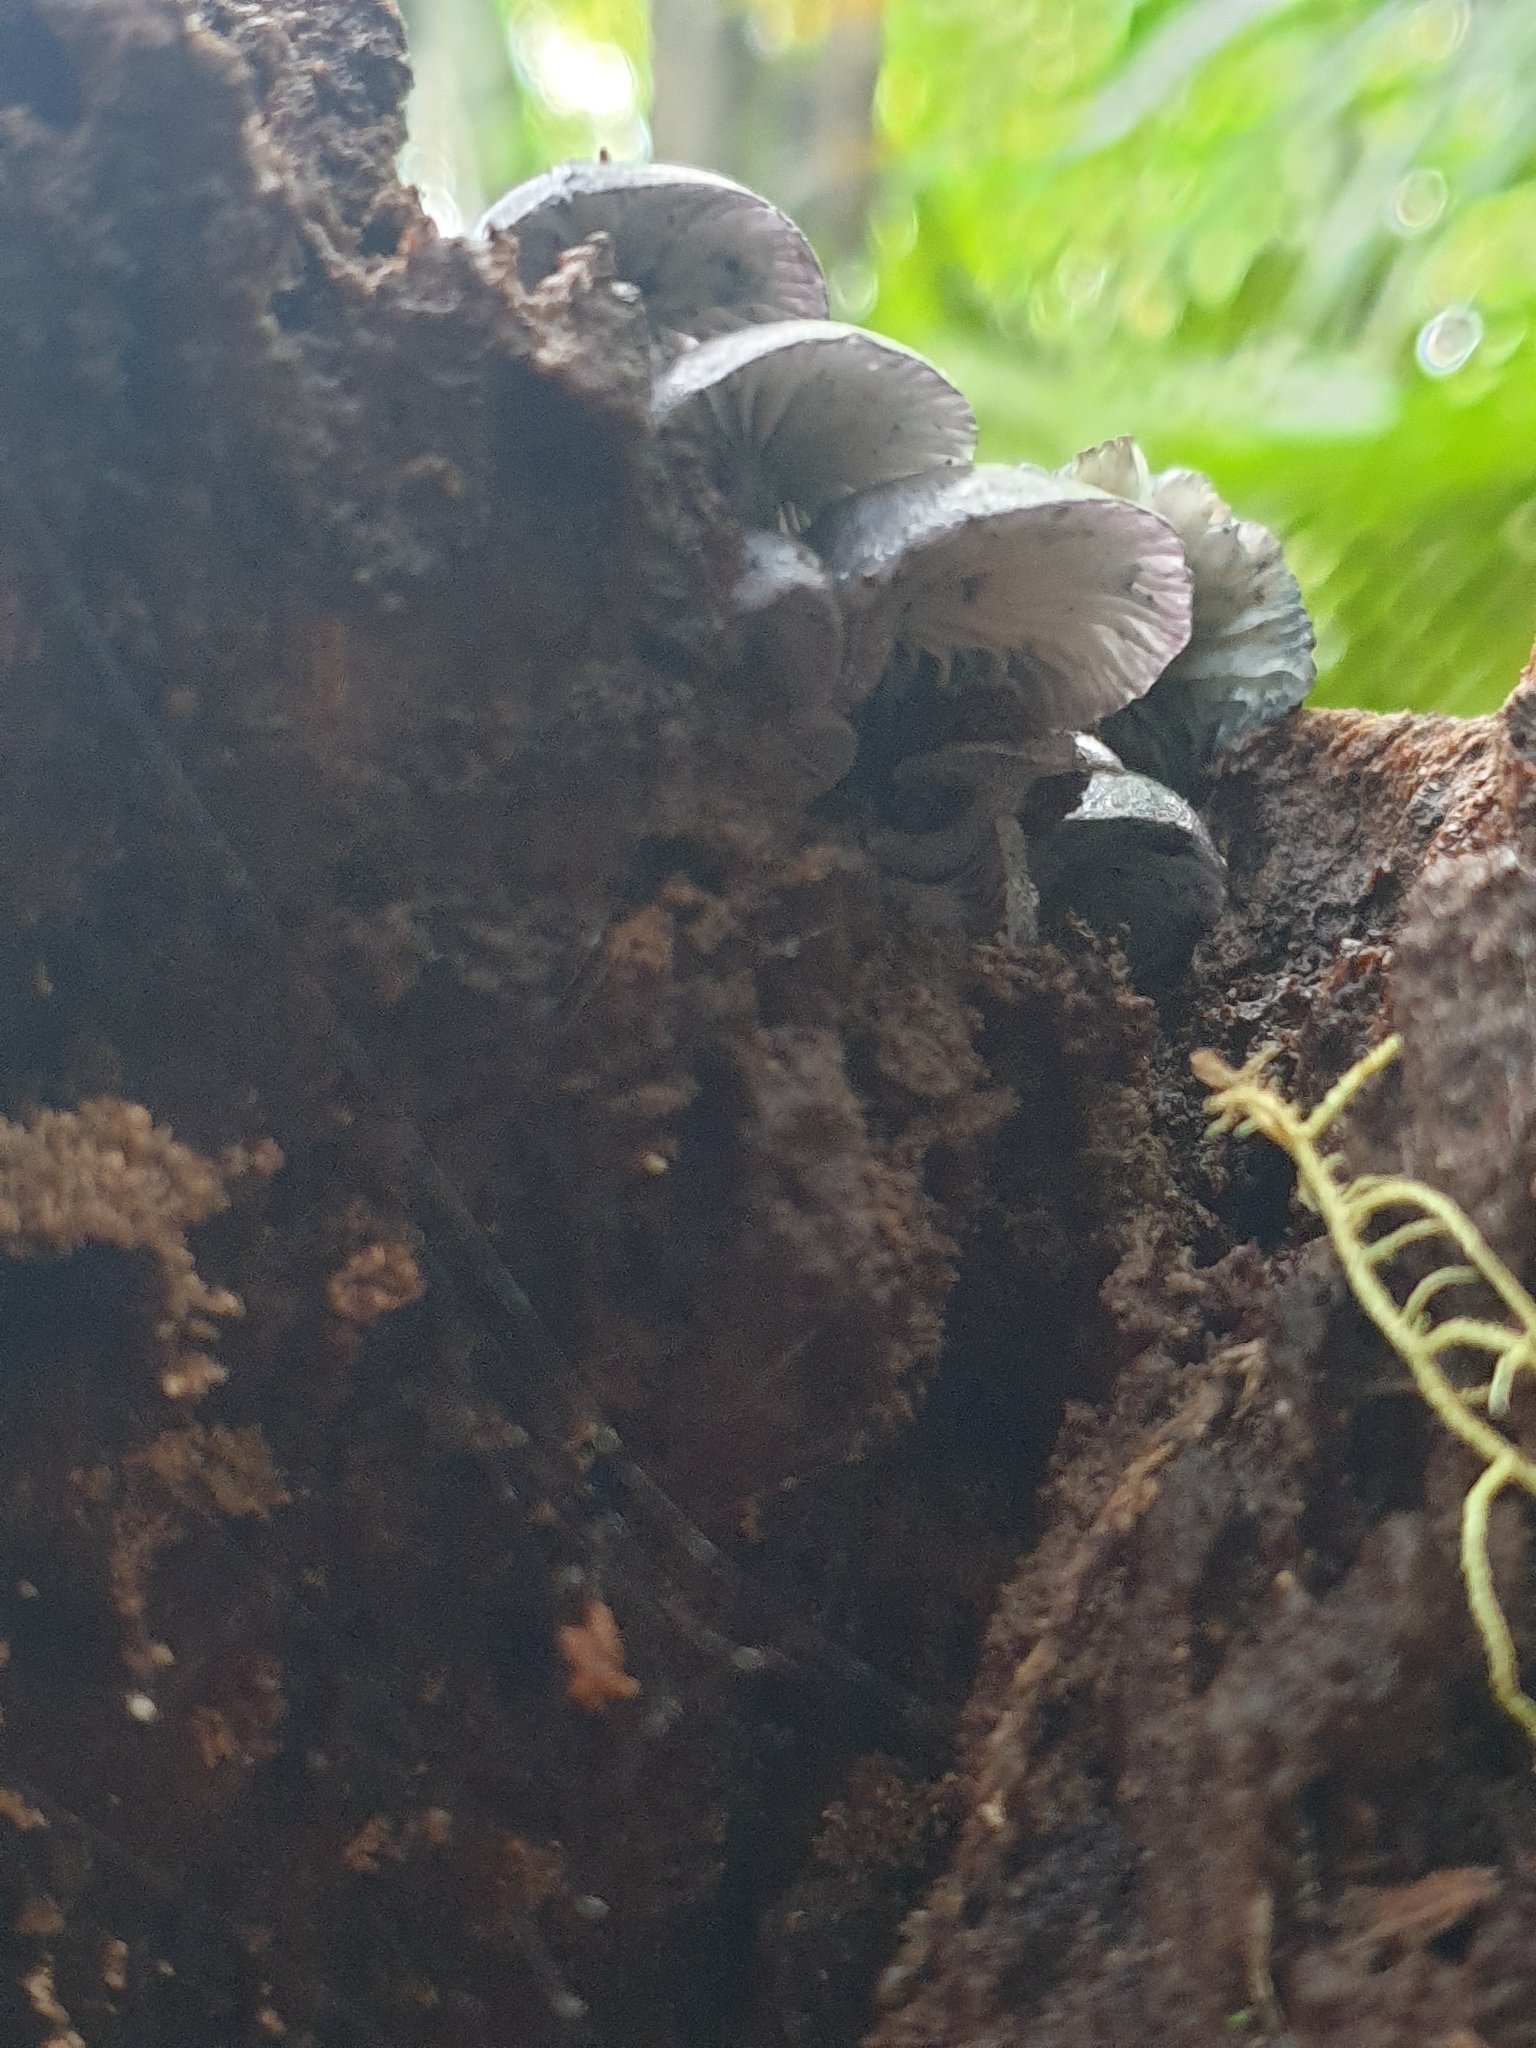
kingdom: Fungi
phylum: Basidiomycota
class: Agaricomycetes
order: Agaricales
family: Marasmiaceae
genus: Gerronema
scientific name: Gerronema waikanaense
